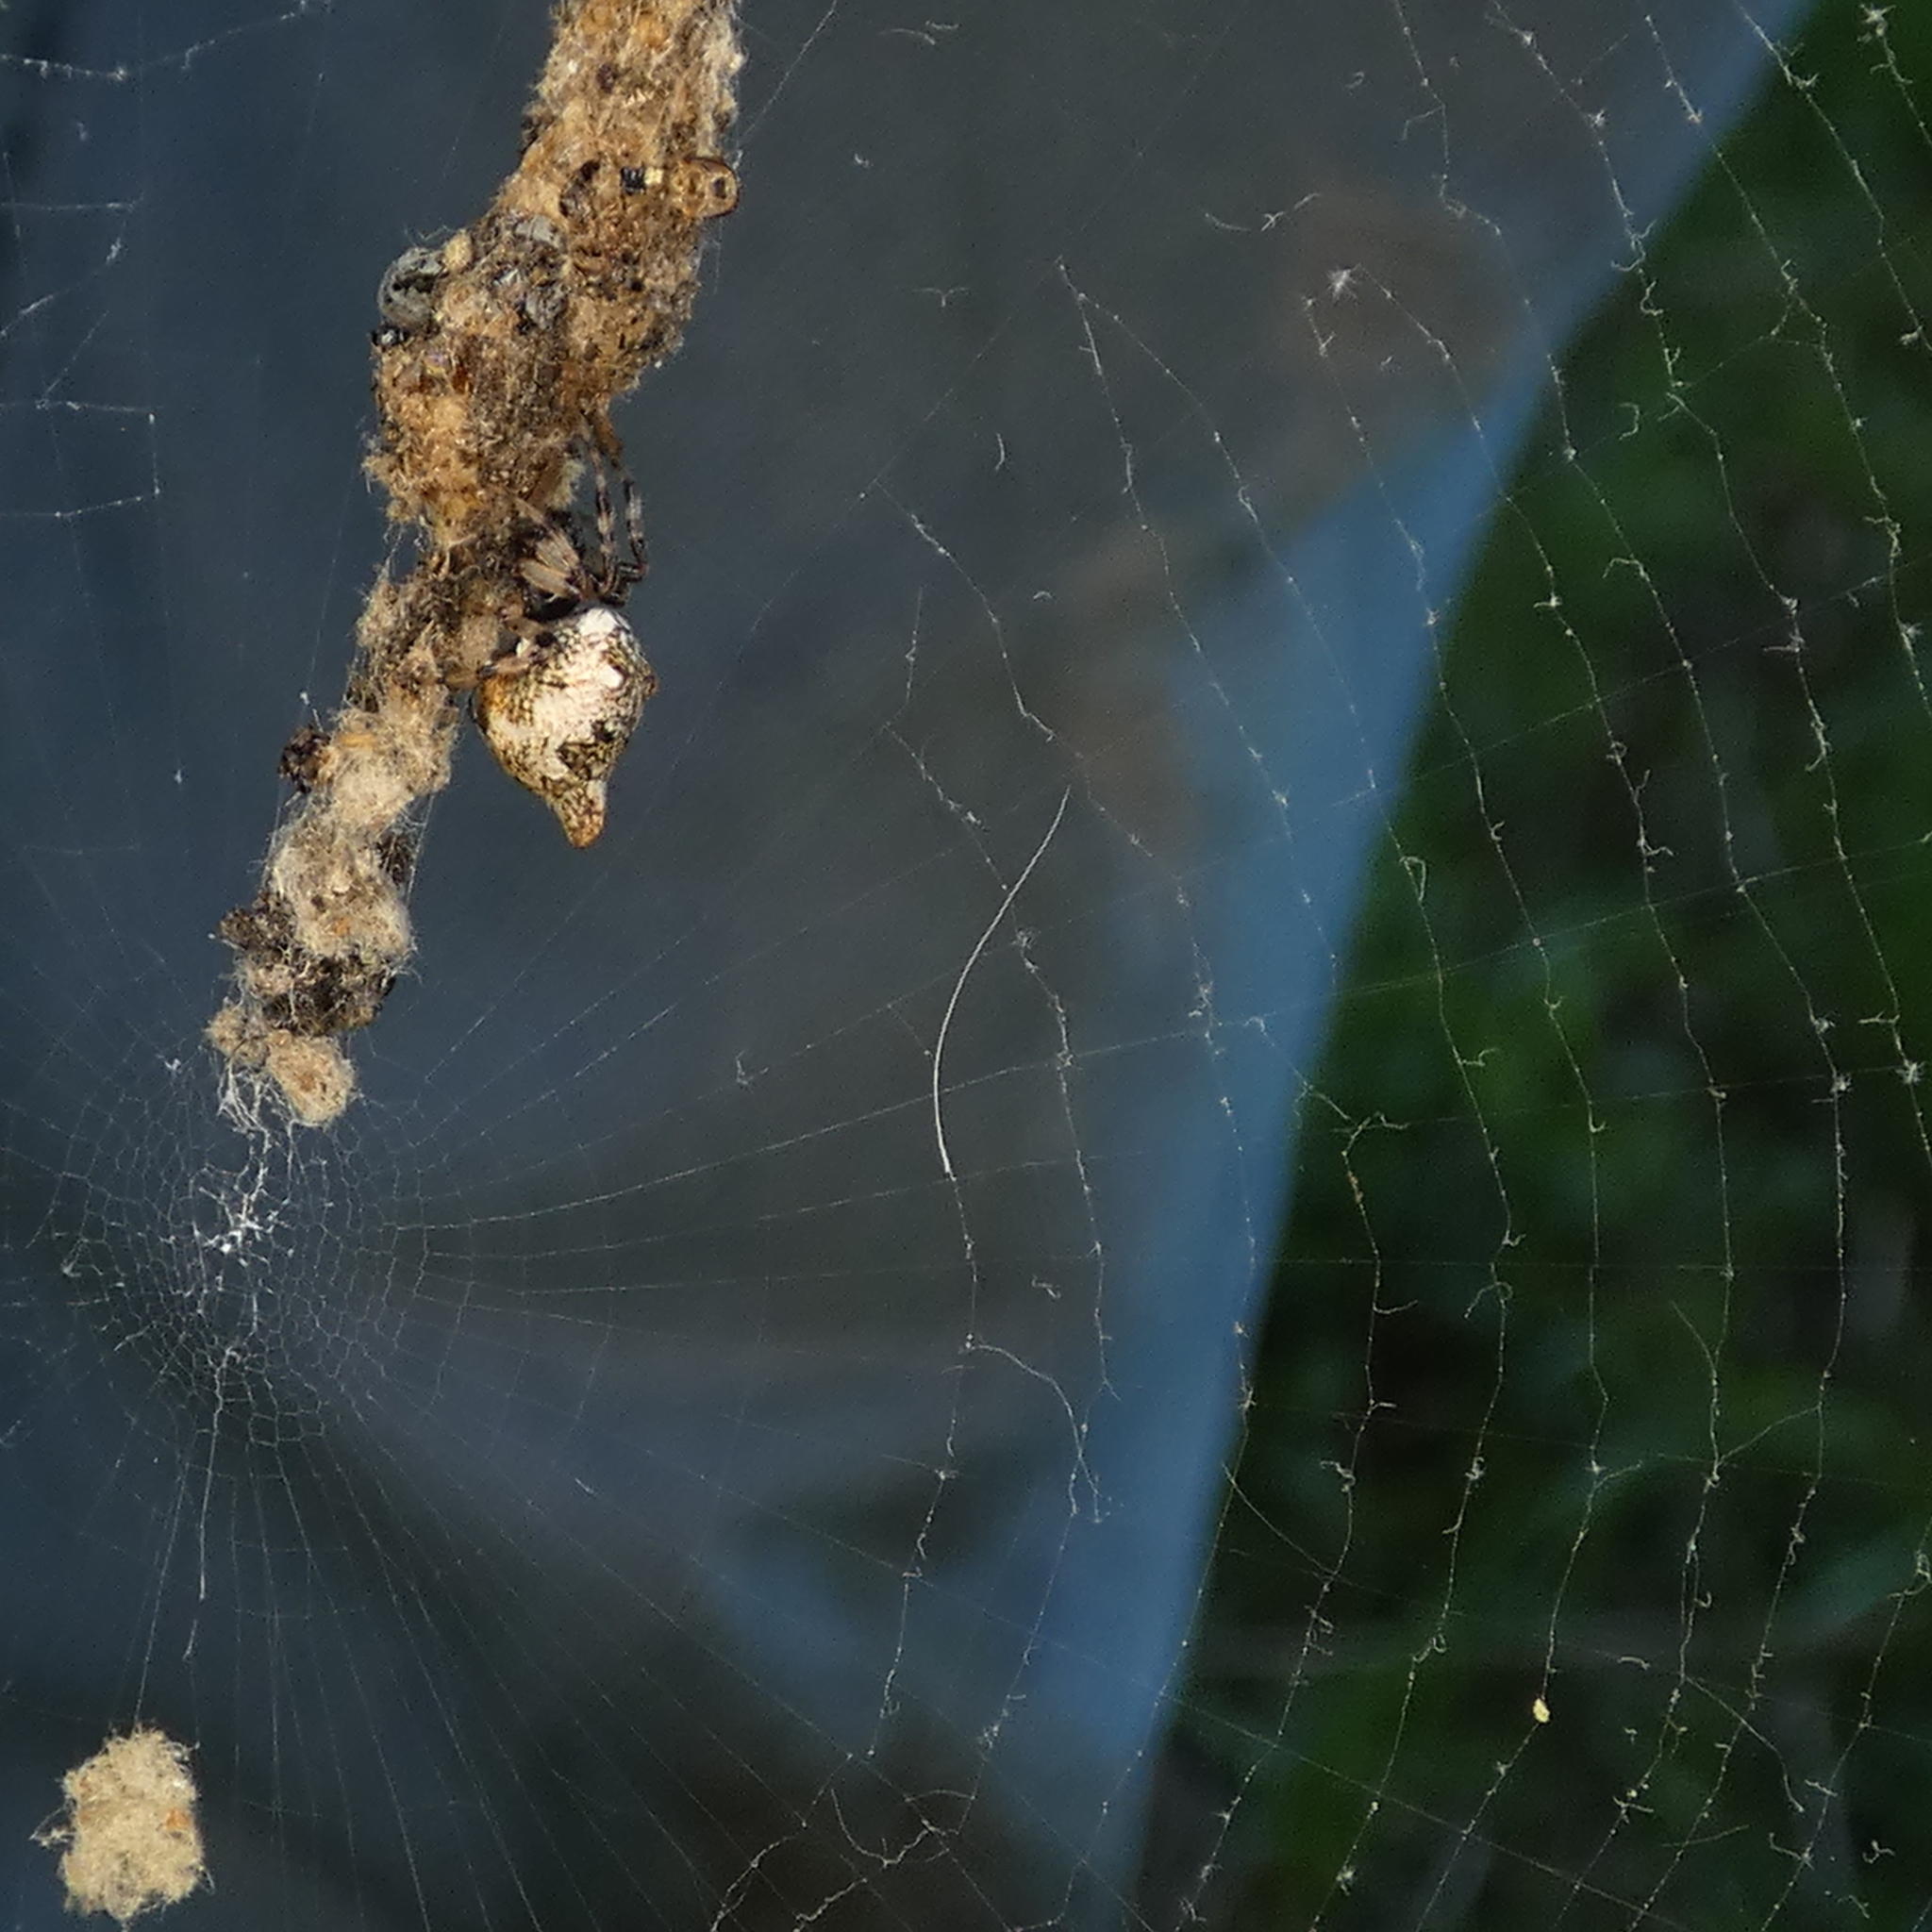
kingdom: Animalia
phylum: Arthropoda
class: Arachnida
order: Araneae
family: Araneidae
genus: Cyclosa
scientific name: Cyclosa turbinata
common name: Orb weavers
